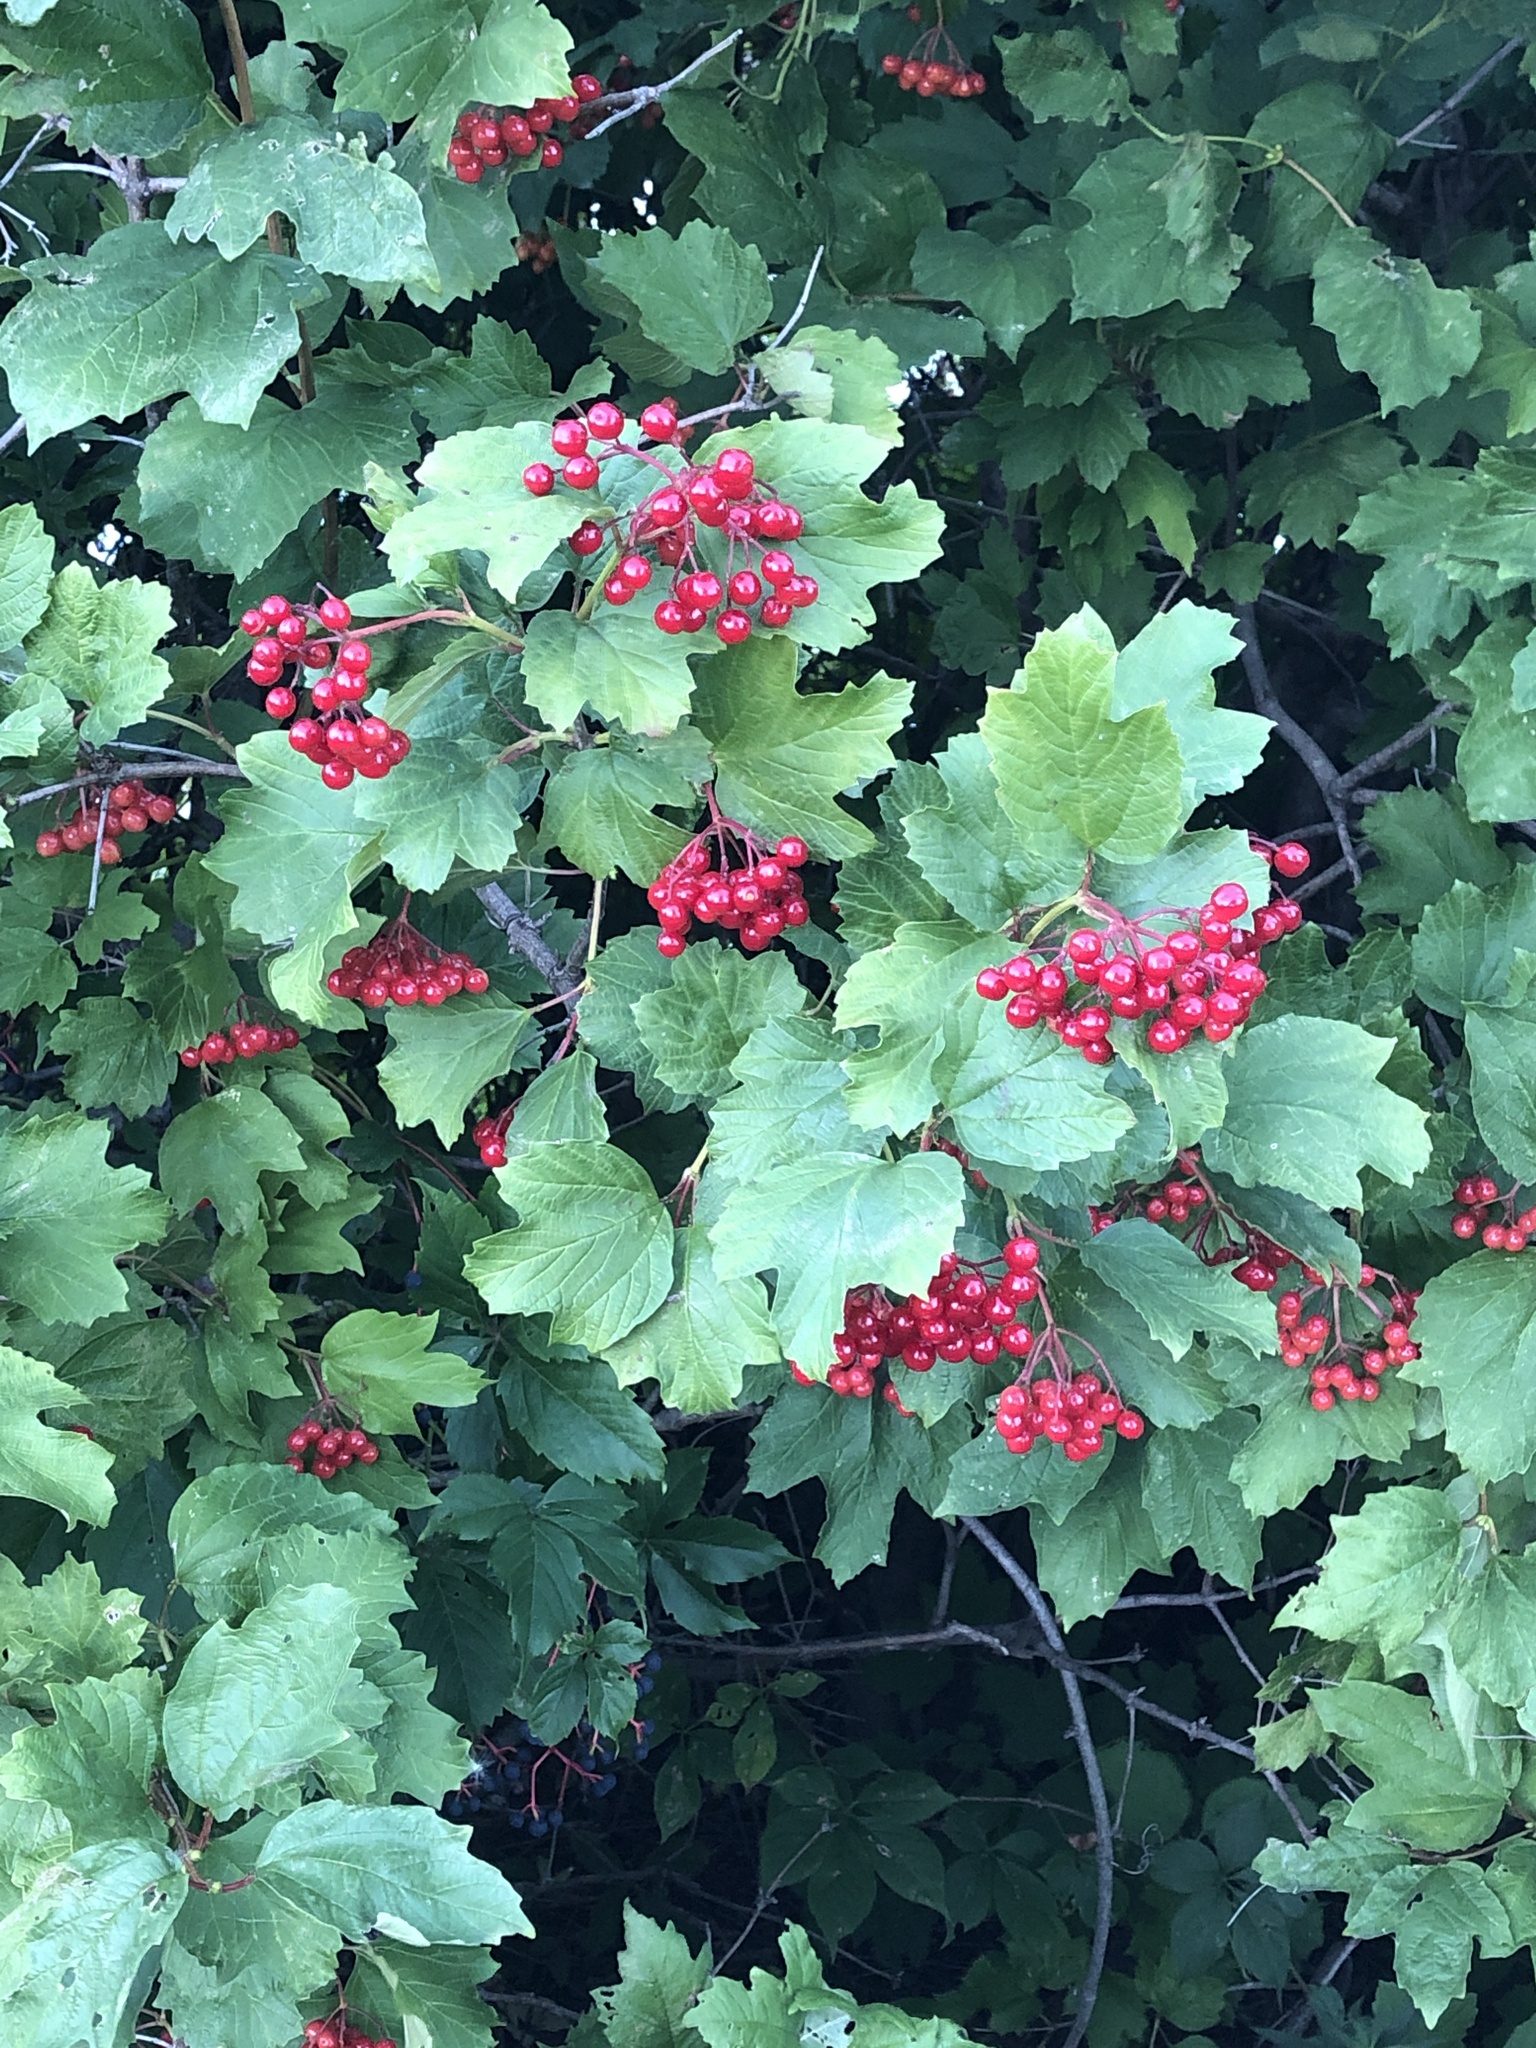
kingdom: Plantae
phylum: Tracheophyta
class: Magnoliopsida
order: Dipsacales
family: Viburnaceae
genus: Viburnum
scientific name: Viburnum opulus
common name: Guelder-rose
